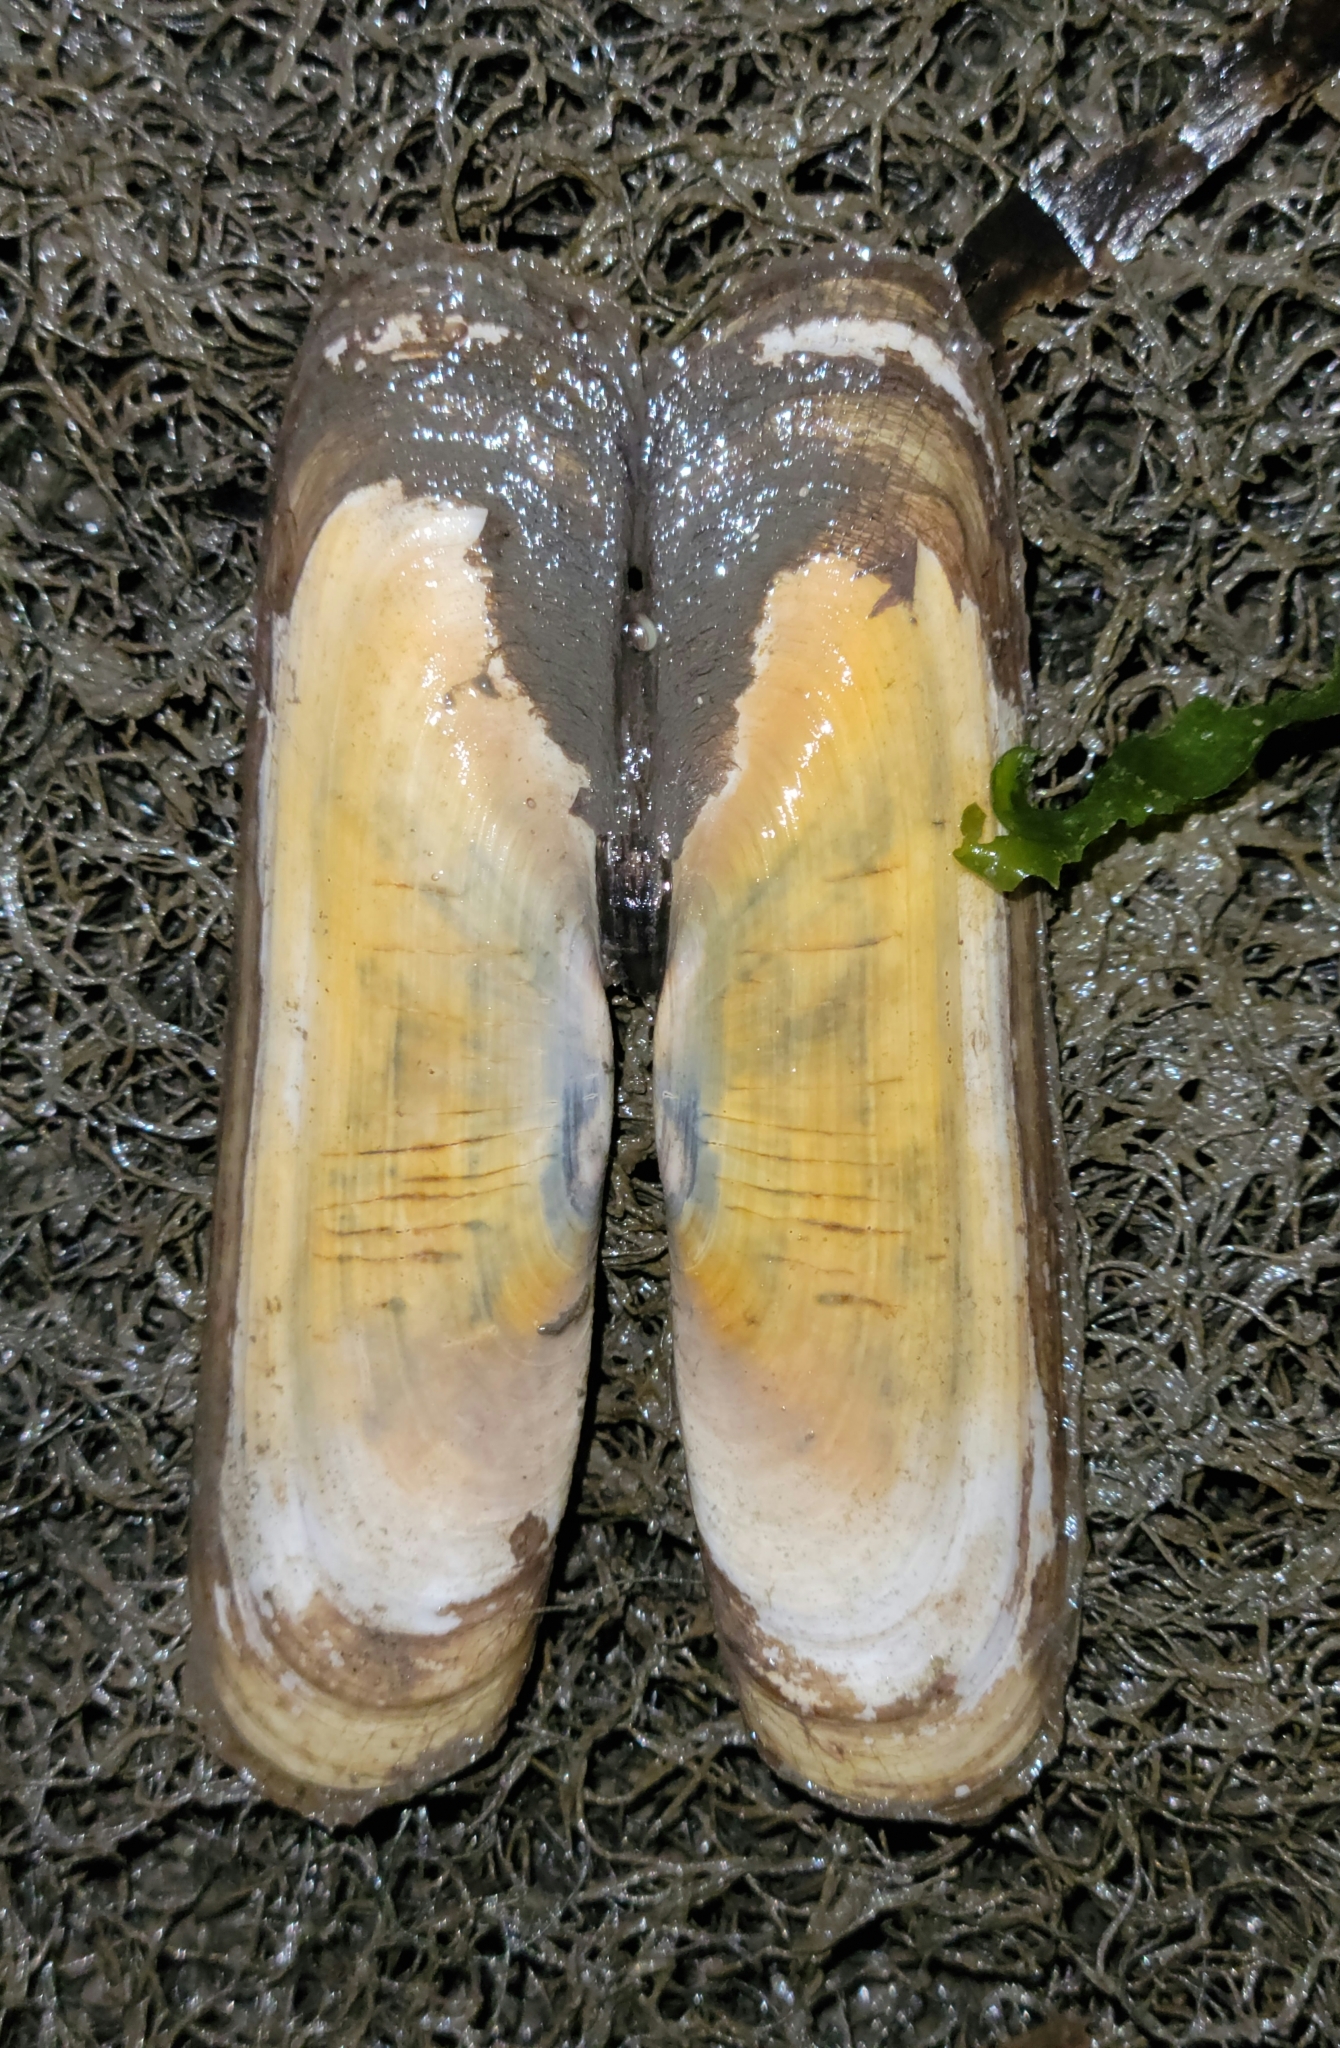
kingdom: Animalia
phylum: Mollusca
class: Bivalvia
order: Cardiida
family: Solecurtidae
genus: Tagelus
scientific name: Tagelus californianus
